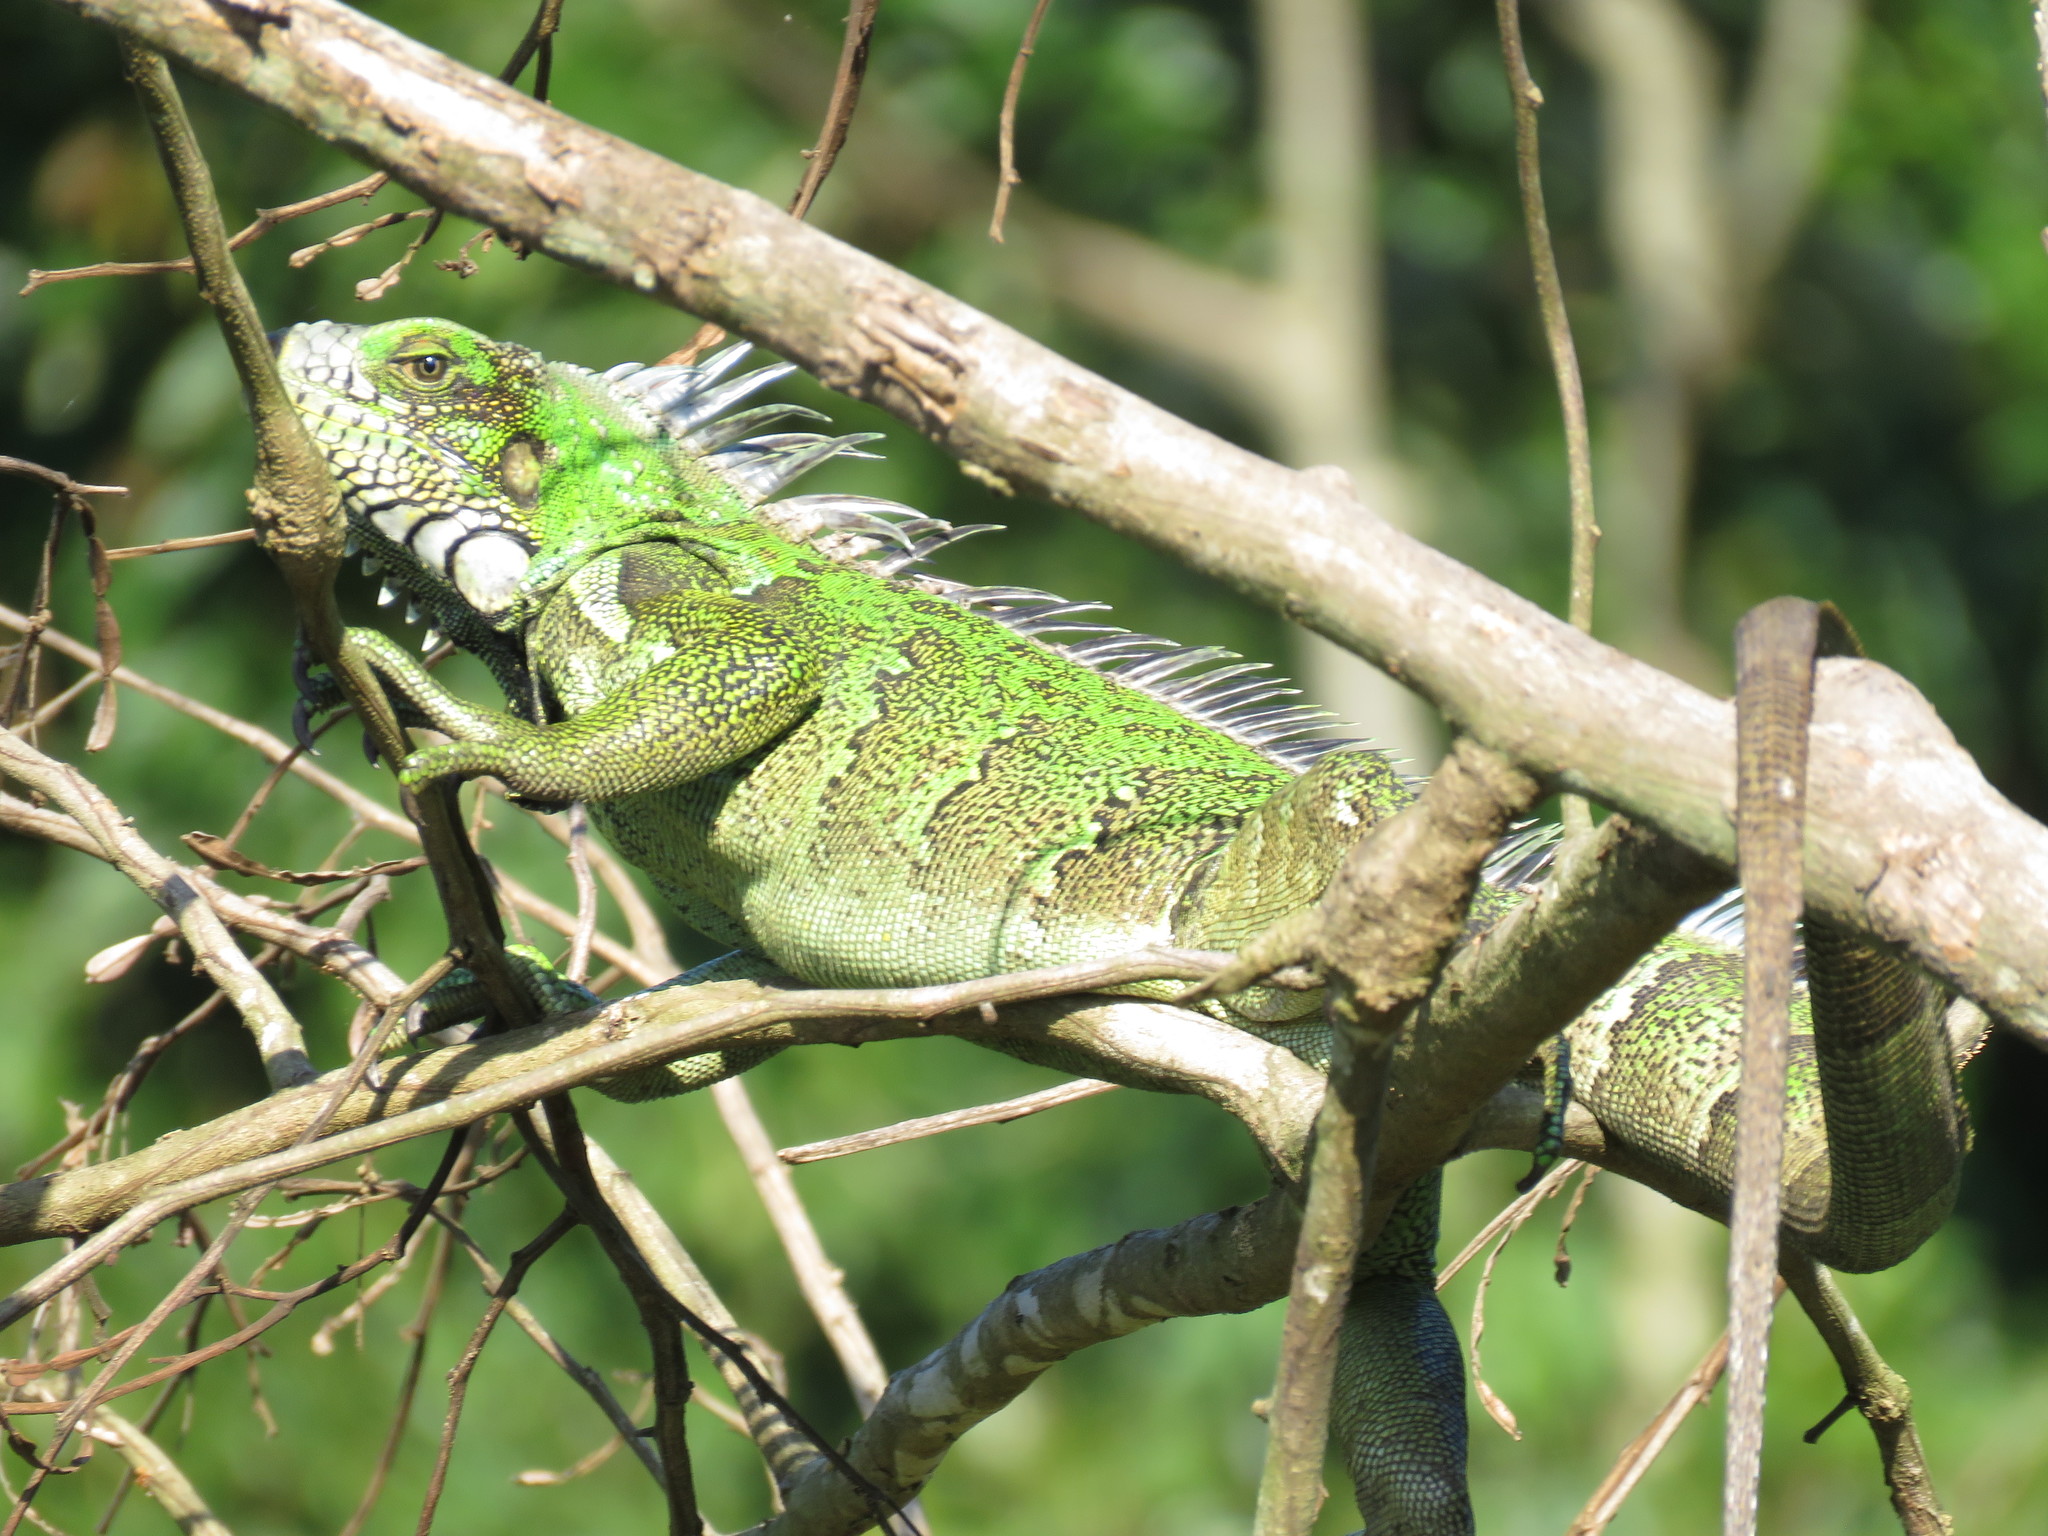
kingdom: Animalia
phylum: Chordata
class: Squamata
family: Iguanidae
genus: Iguana
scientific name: Iguana iguana
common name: Green iguana
